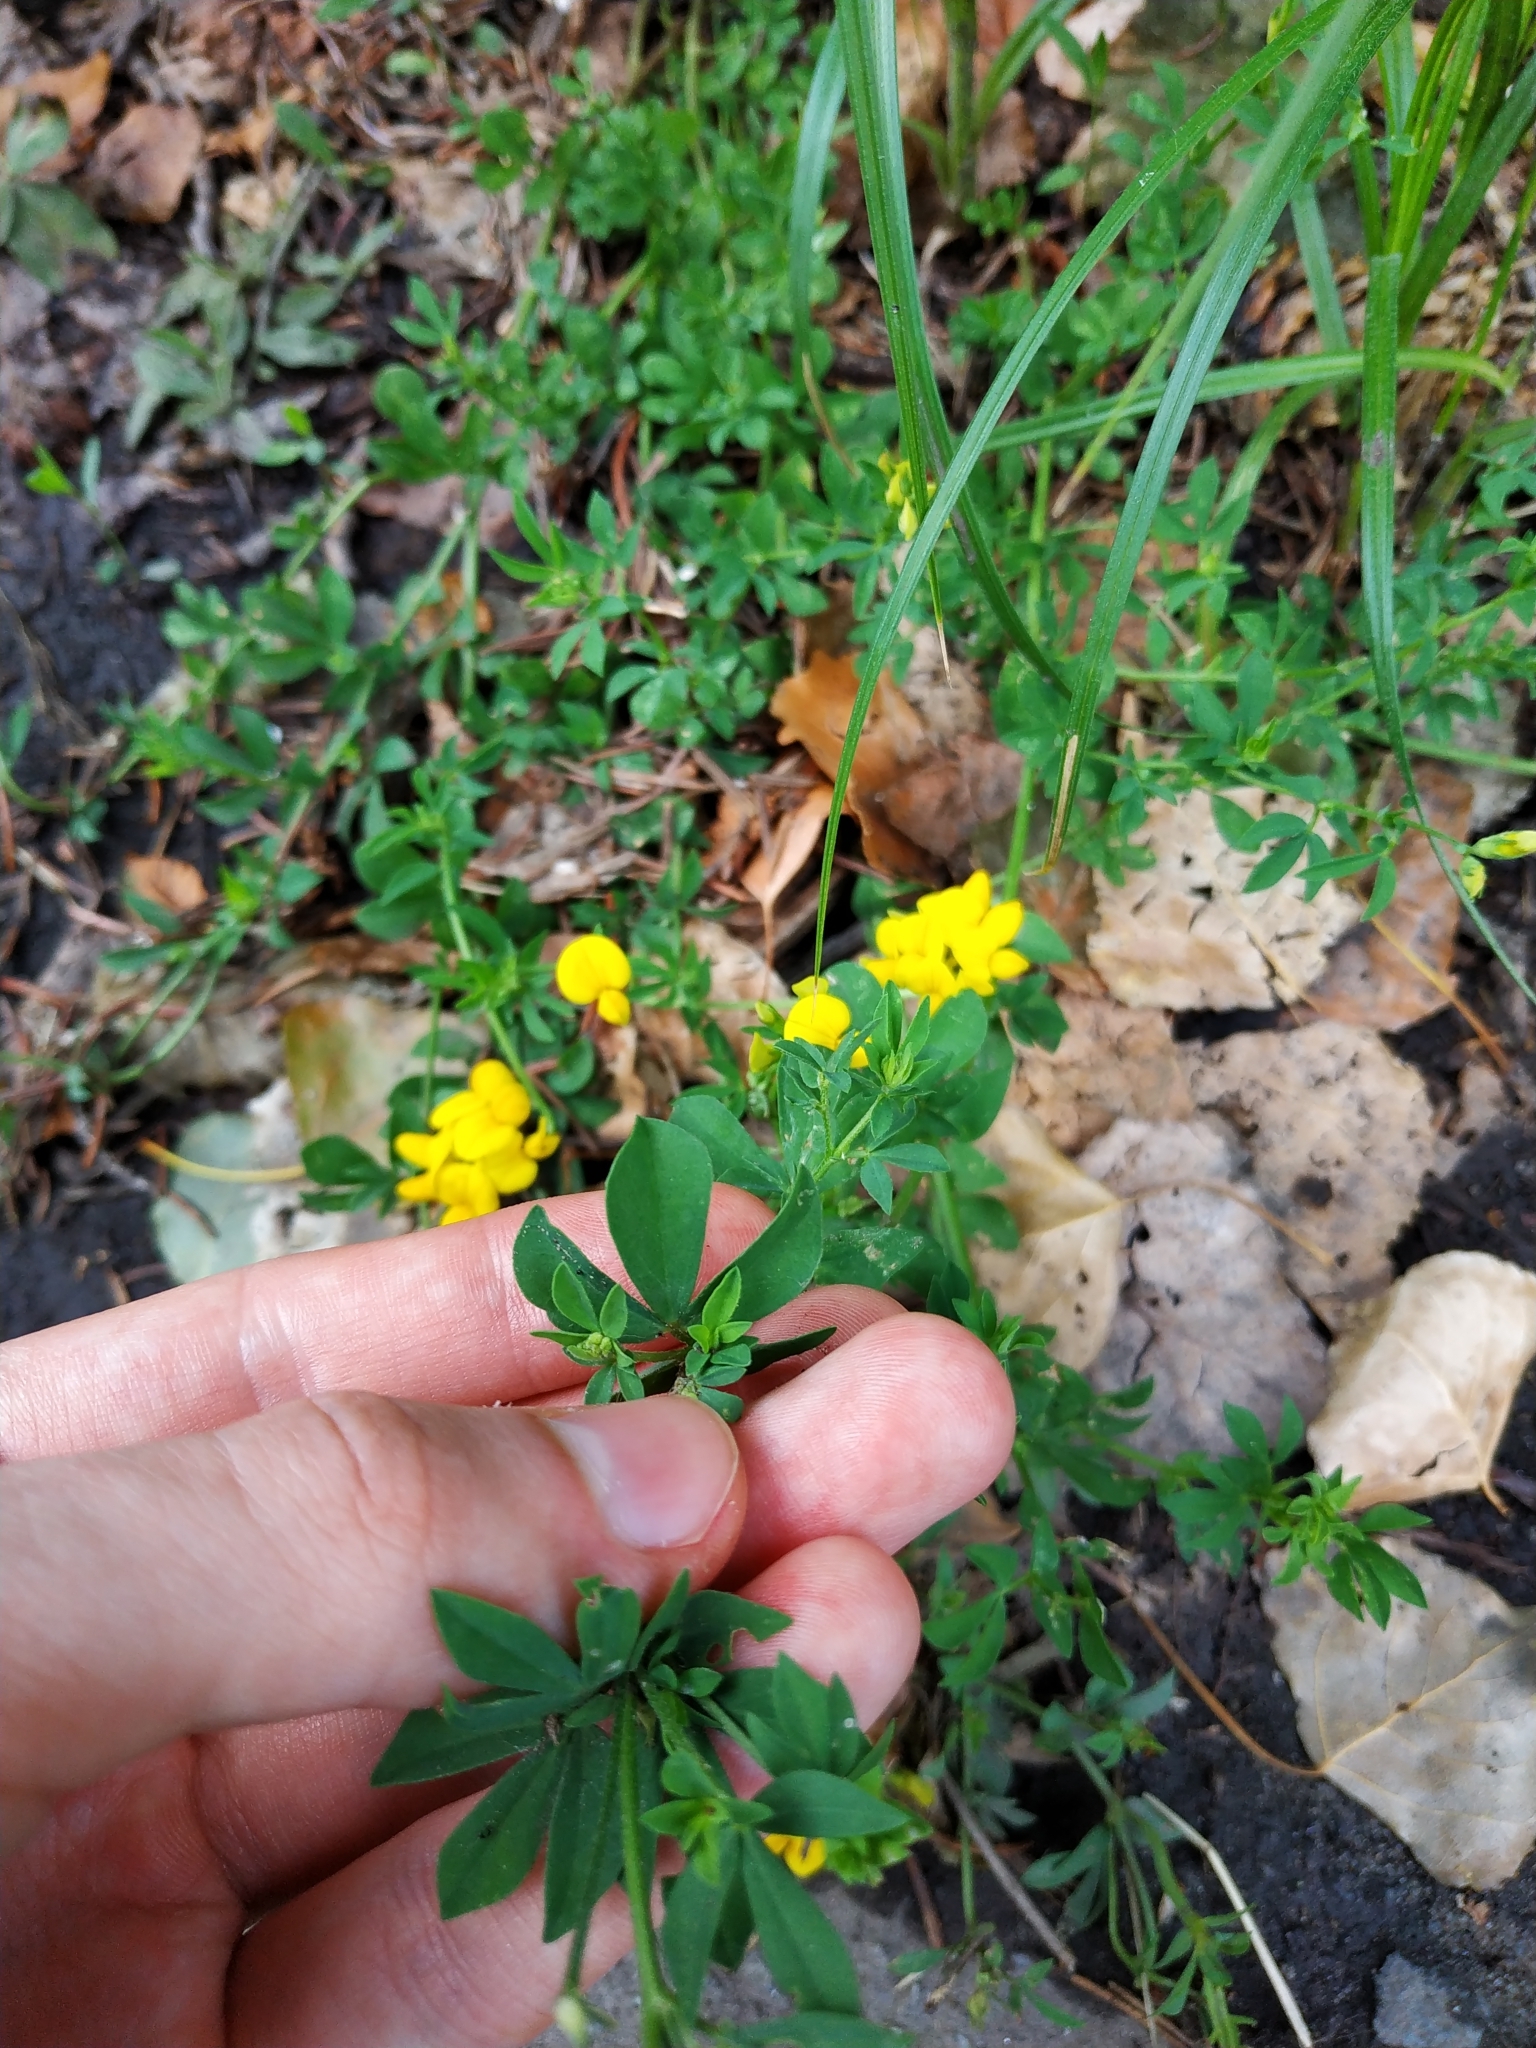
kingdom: Plantae
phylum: Tracheophyta
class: Magnoliopsida
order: Fabales
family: Fabaceae
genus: Lotus
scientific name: Lotus corniculatus
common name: Common bird's-foot-trefoil
